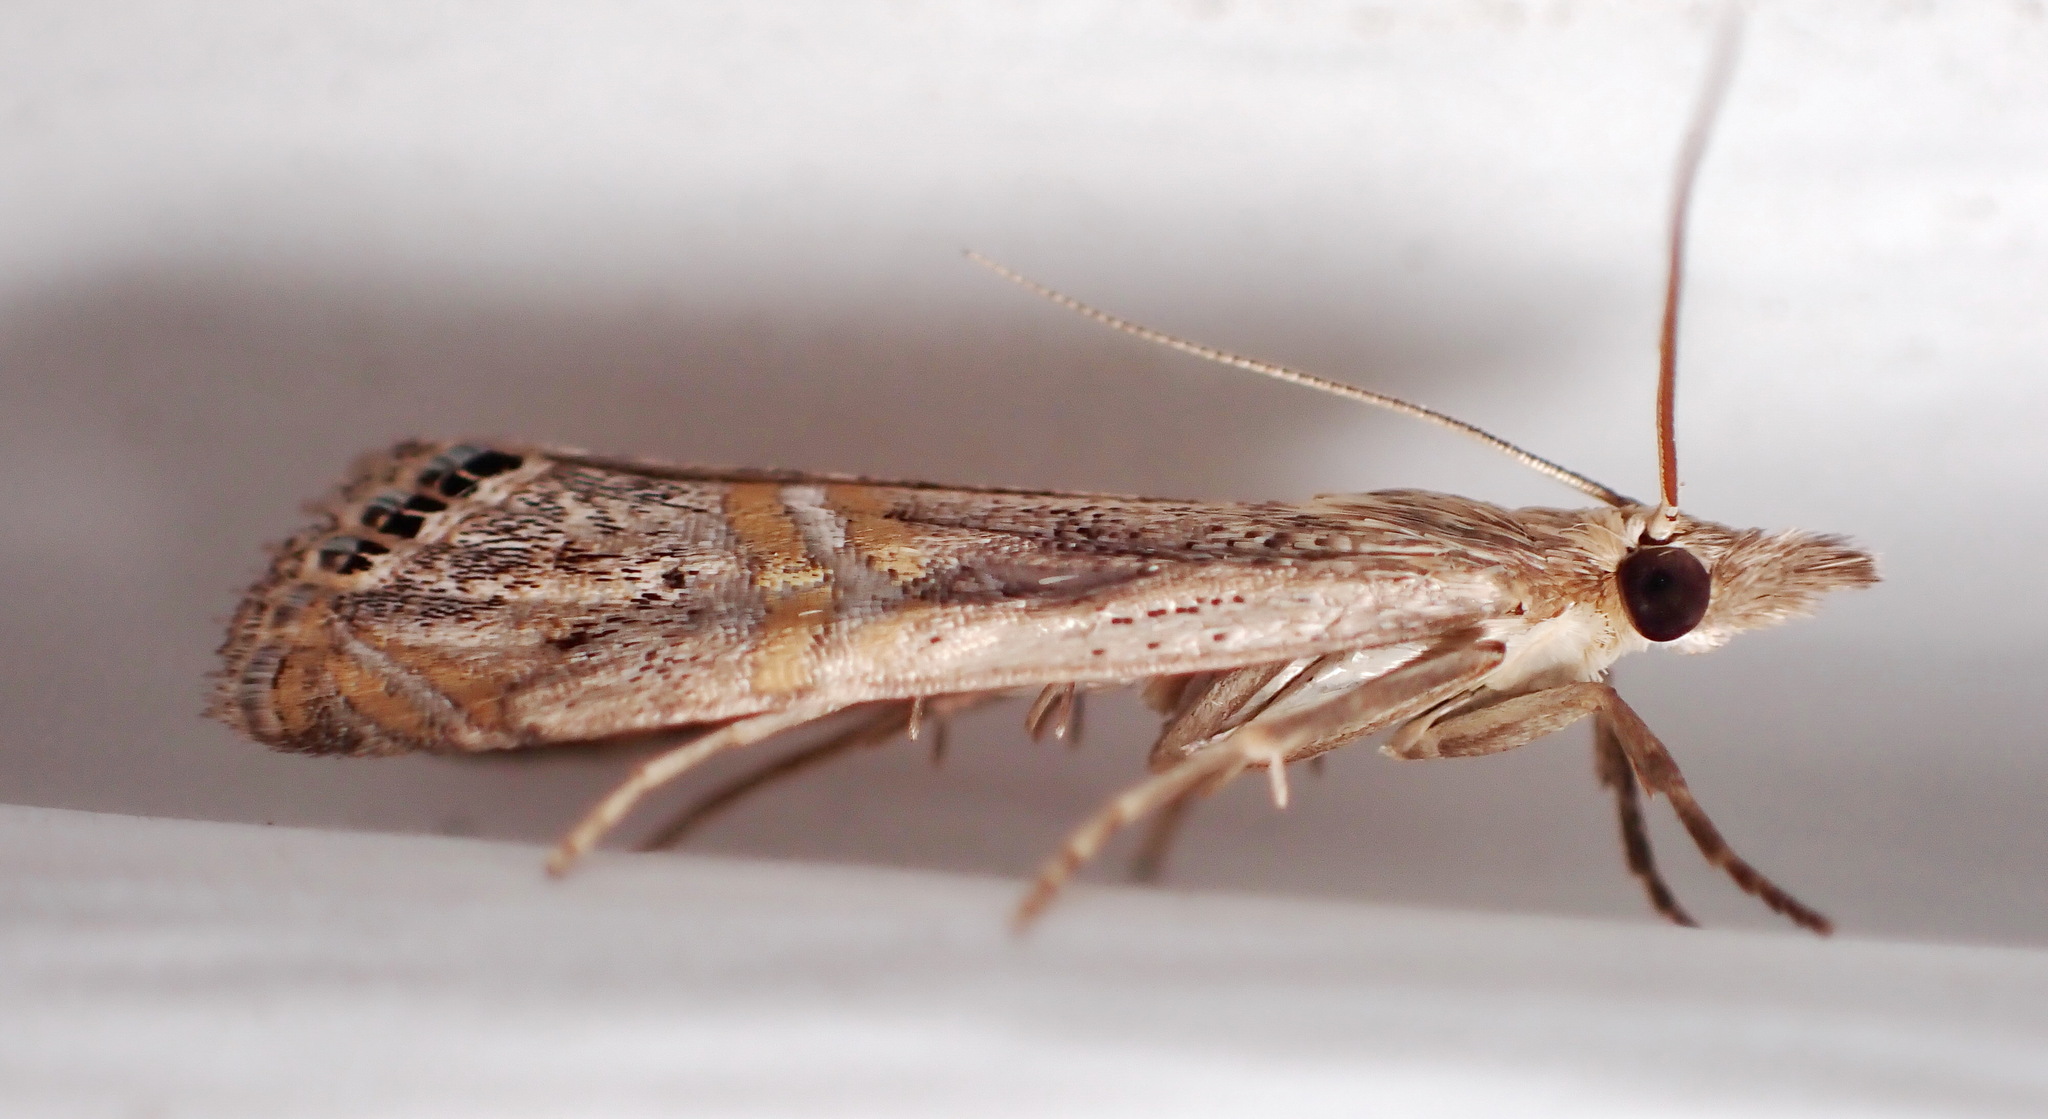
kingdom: Animalia
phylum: Arthropoda
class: Insecta
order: Lepidoptera
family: Crambidae
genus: Euchromius
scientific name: Euchromius ocellea
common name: Necklace veneer moth
